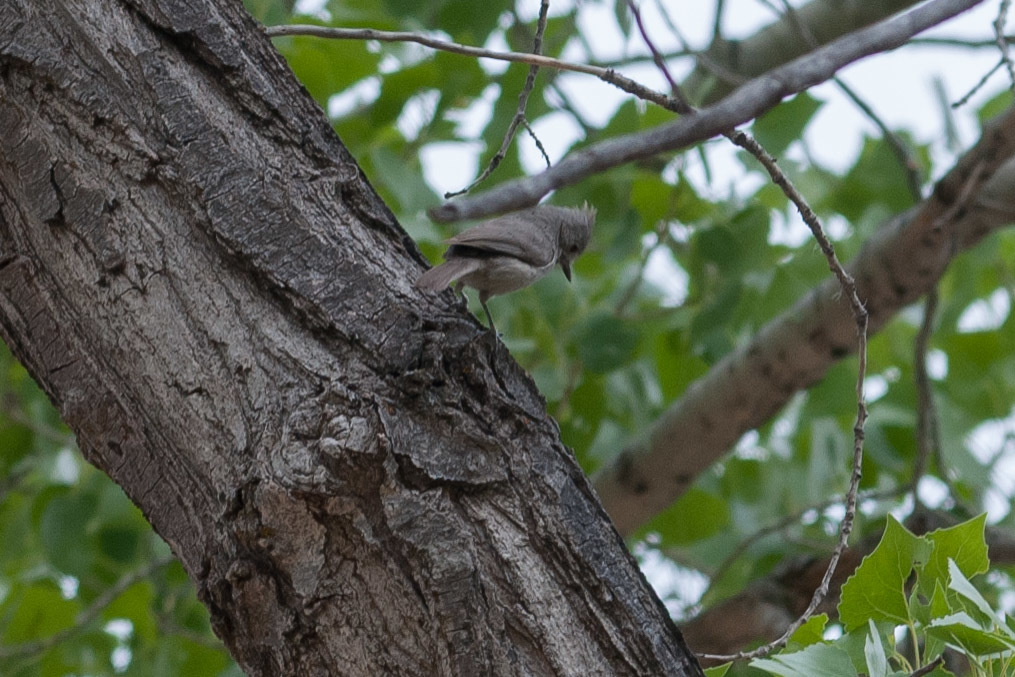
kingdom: Animalia
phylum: Chordata
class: Aves
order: Passeriformes
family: Paridae
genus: Baeolophus
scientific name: Baeolophus ridgwayi
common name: Juniper titmouse
